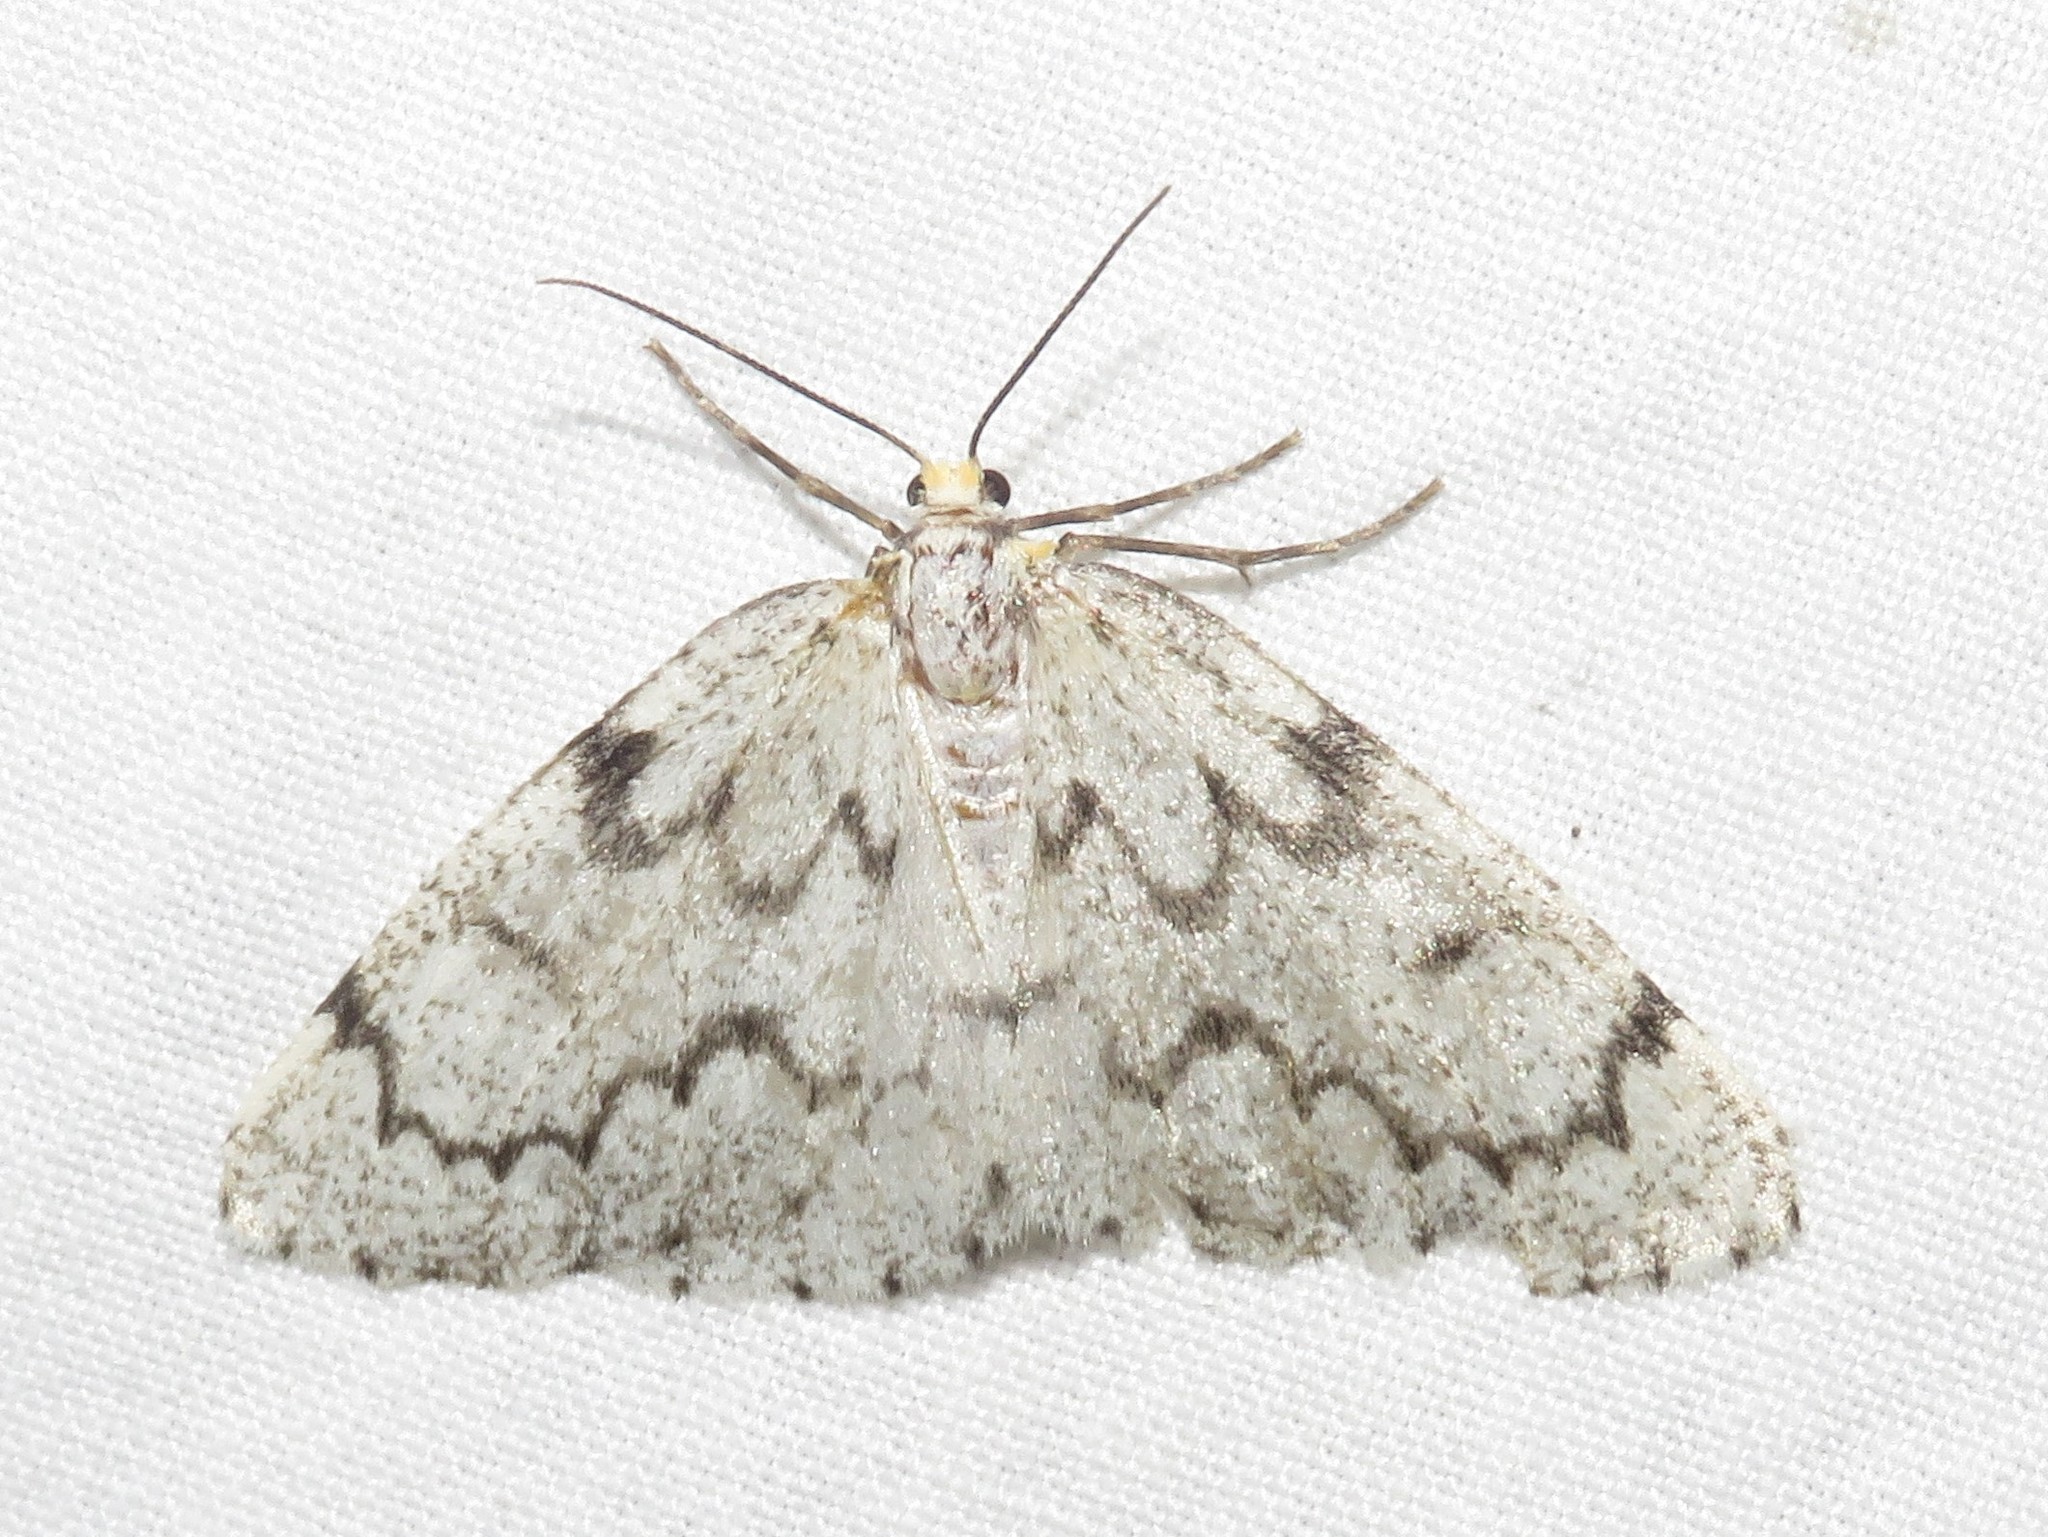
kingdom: Animalia
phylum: Arthropoda
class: Insecta
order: Lepidoptera
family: Geometridae
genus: Nepytia
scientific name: Nepytia canosaria
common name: False hemlock looper
